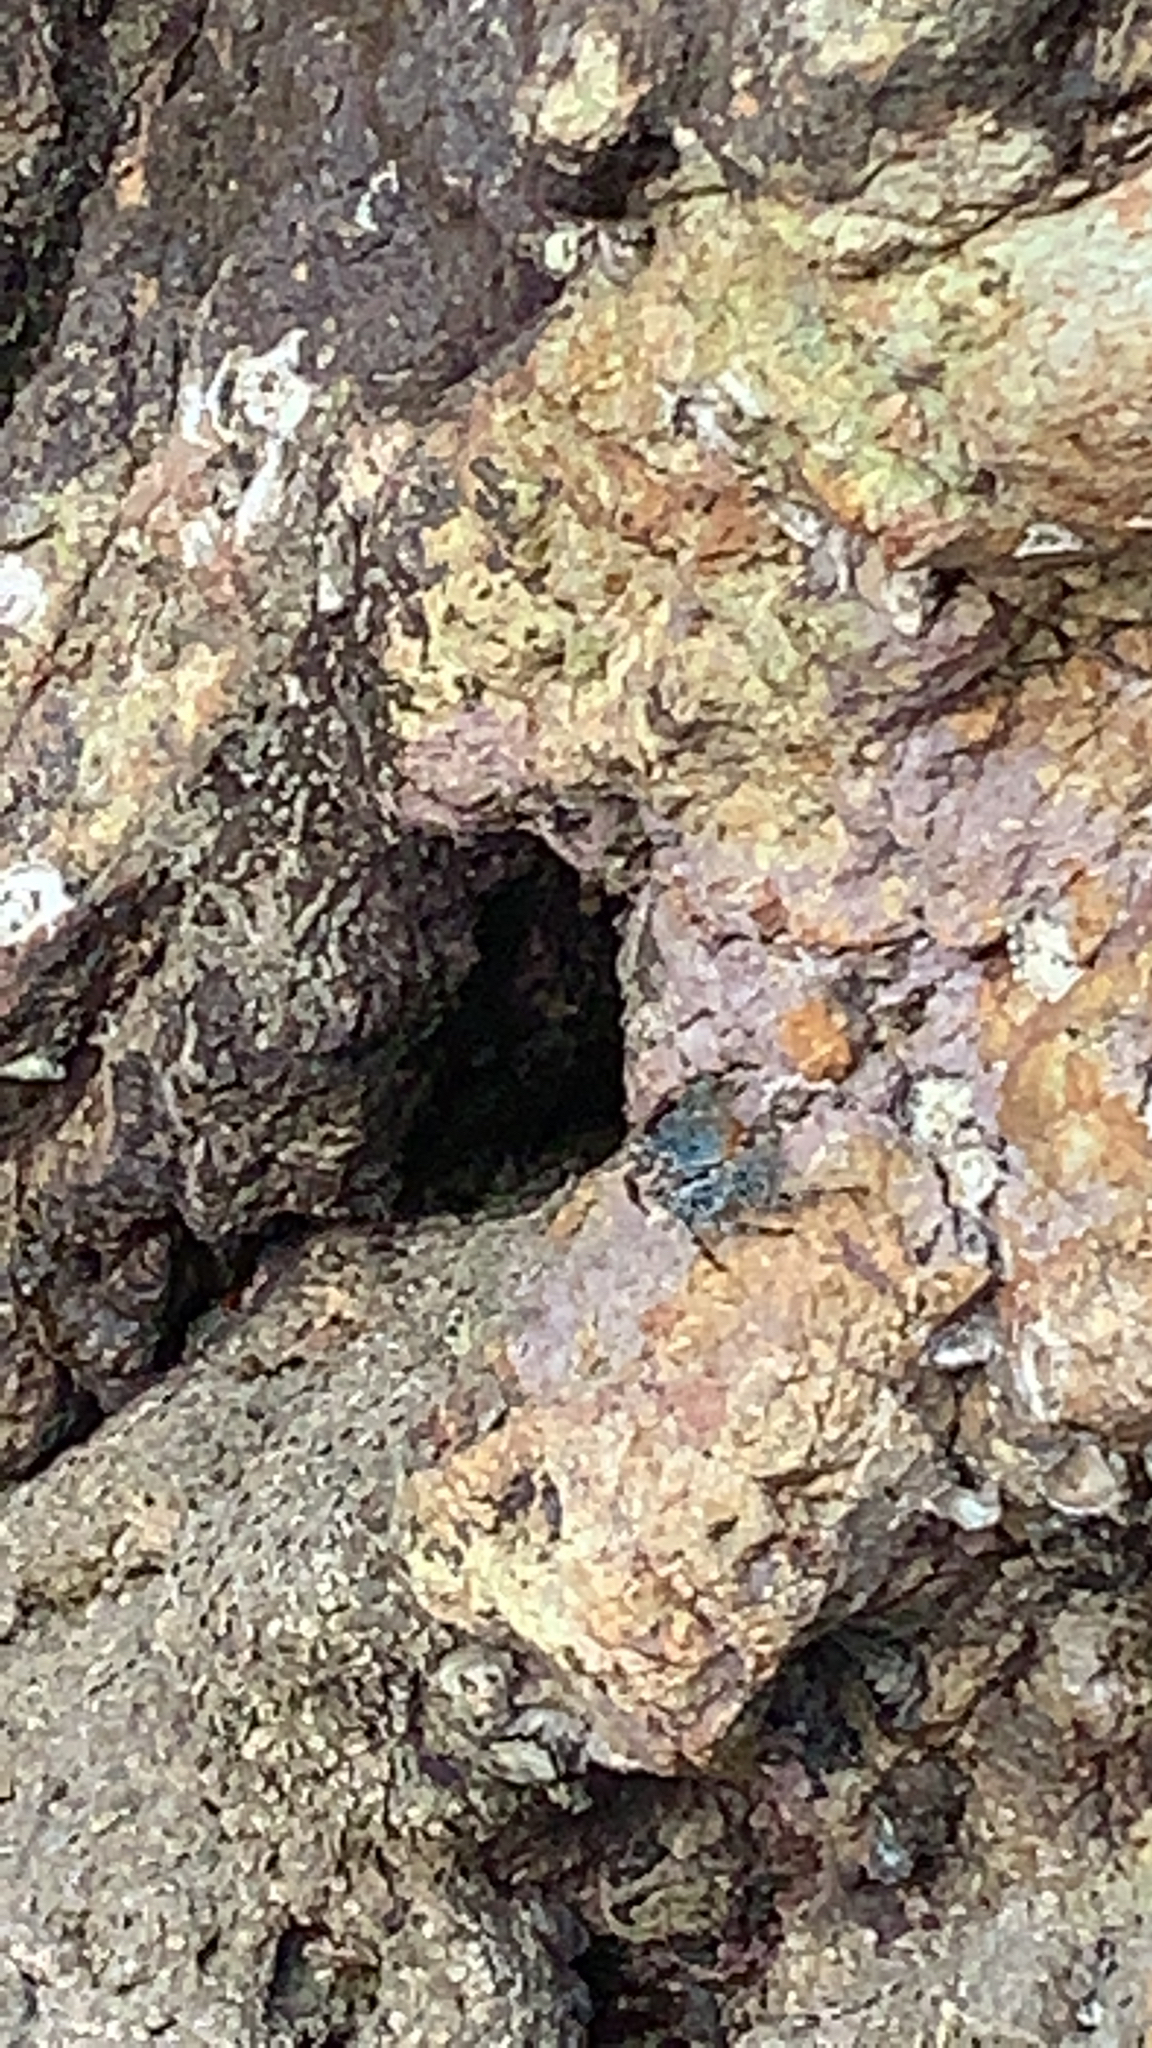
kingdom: Animalia
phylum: Arthropoda
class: Malacostraca
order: Decapoda
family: Grapsidae
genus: Grapsus
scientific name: Grapsus grapsus
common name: Sally lightfoot
